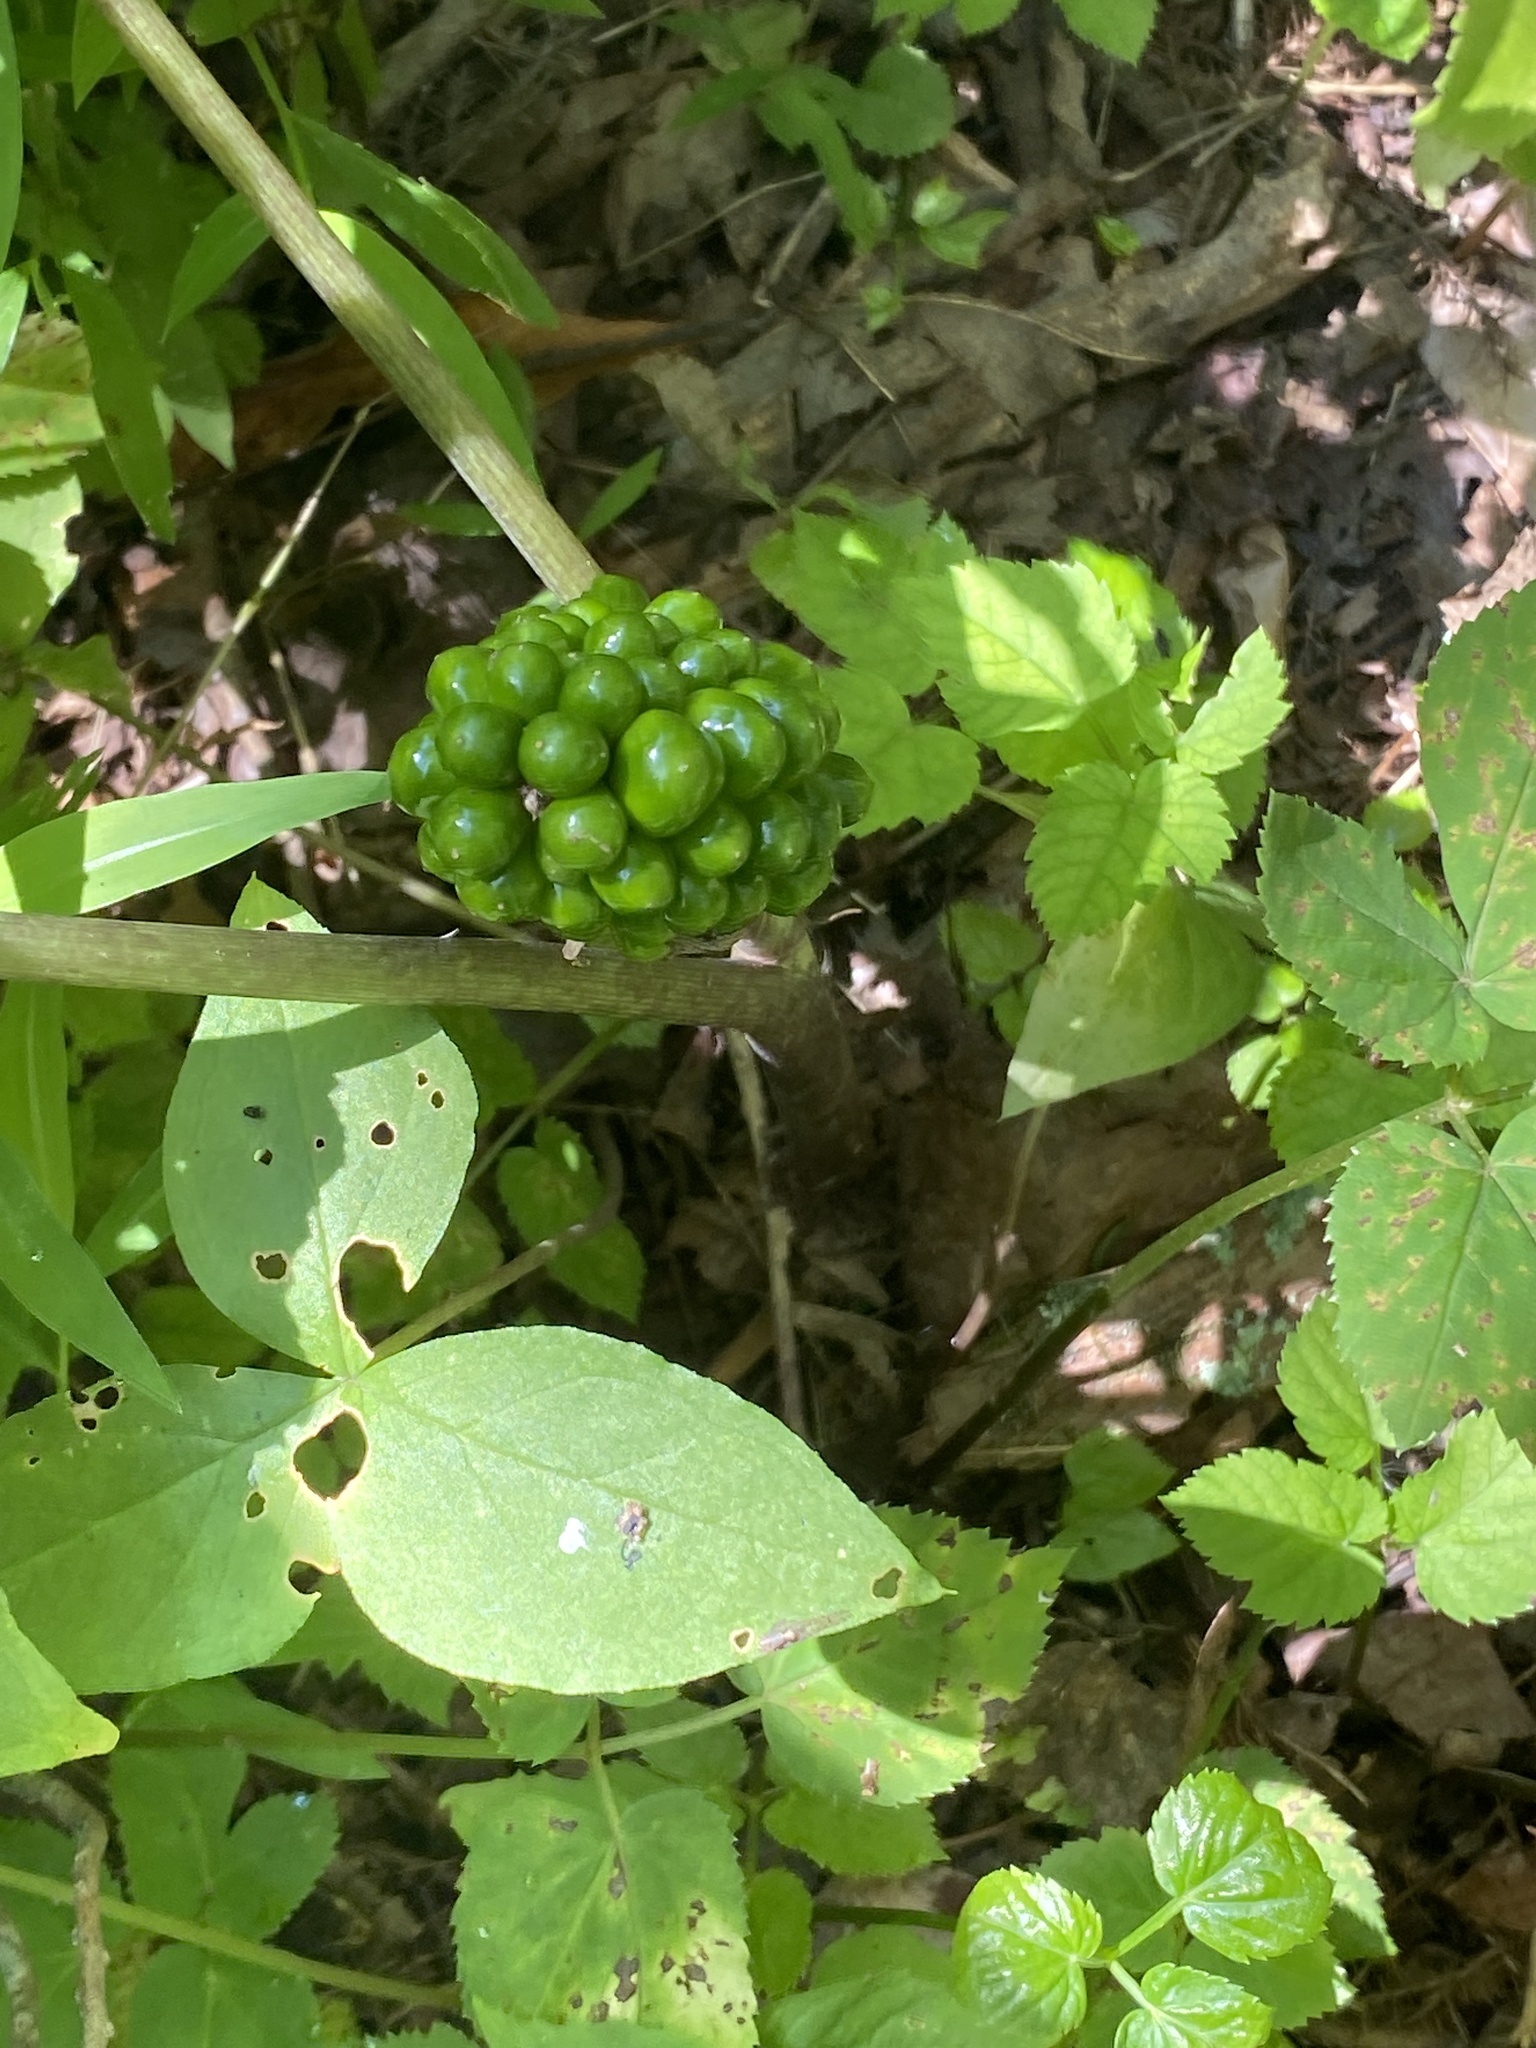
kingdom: Plantae
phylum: Tracheophyta
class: Liliopsida
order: Alismatales
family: Araceae
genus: Arisaema
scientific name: Arisaema triphyllum
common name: Jack-in-the-pulpit
